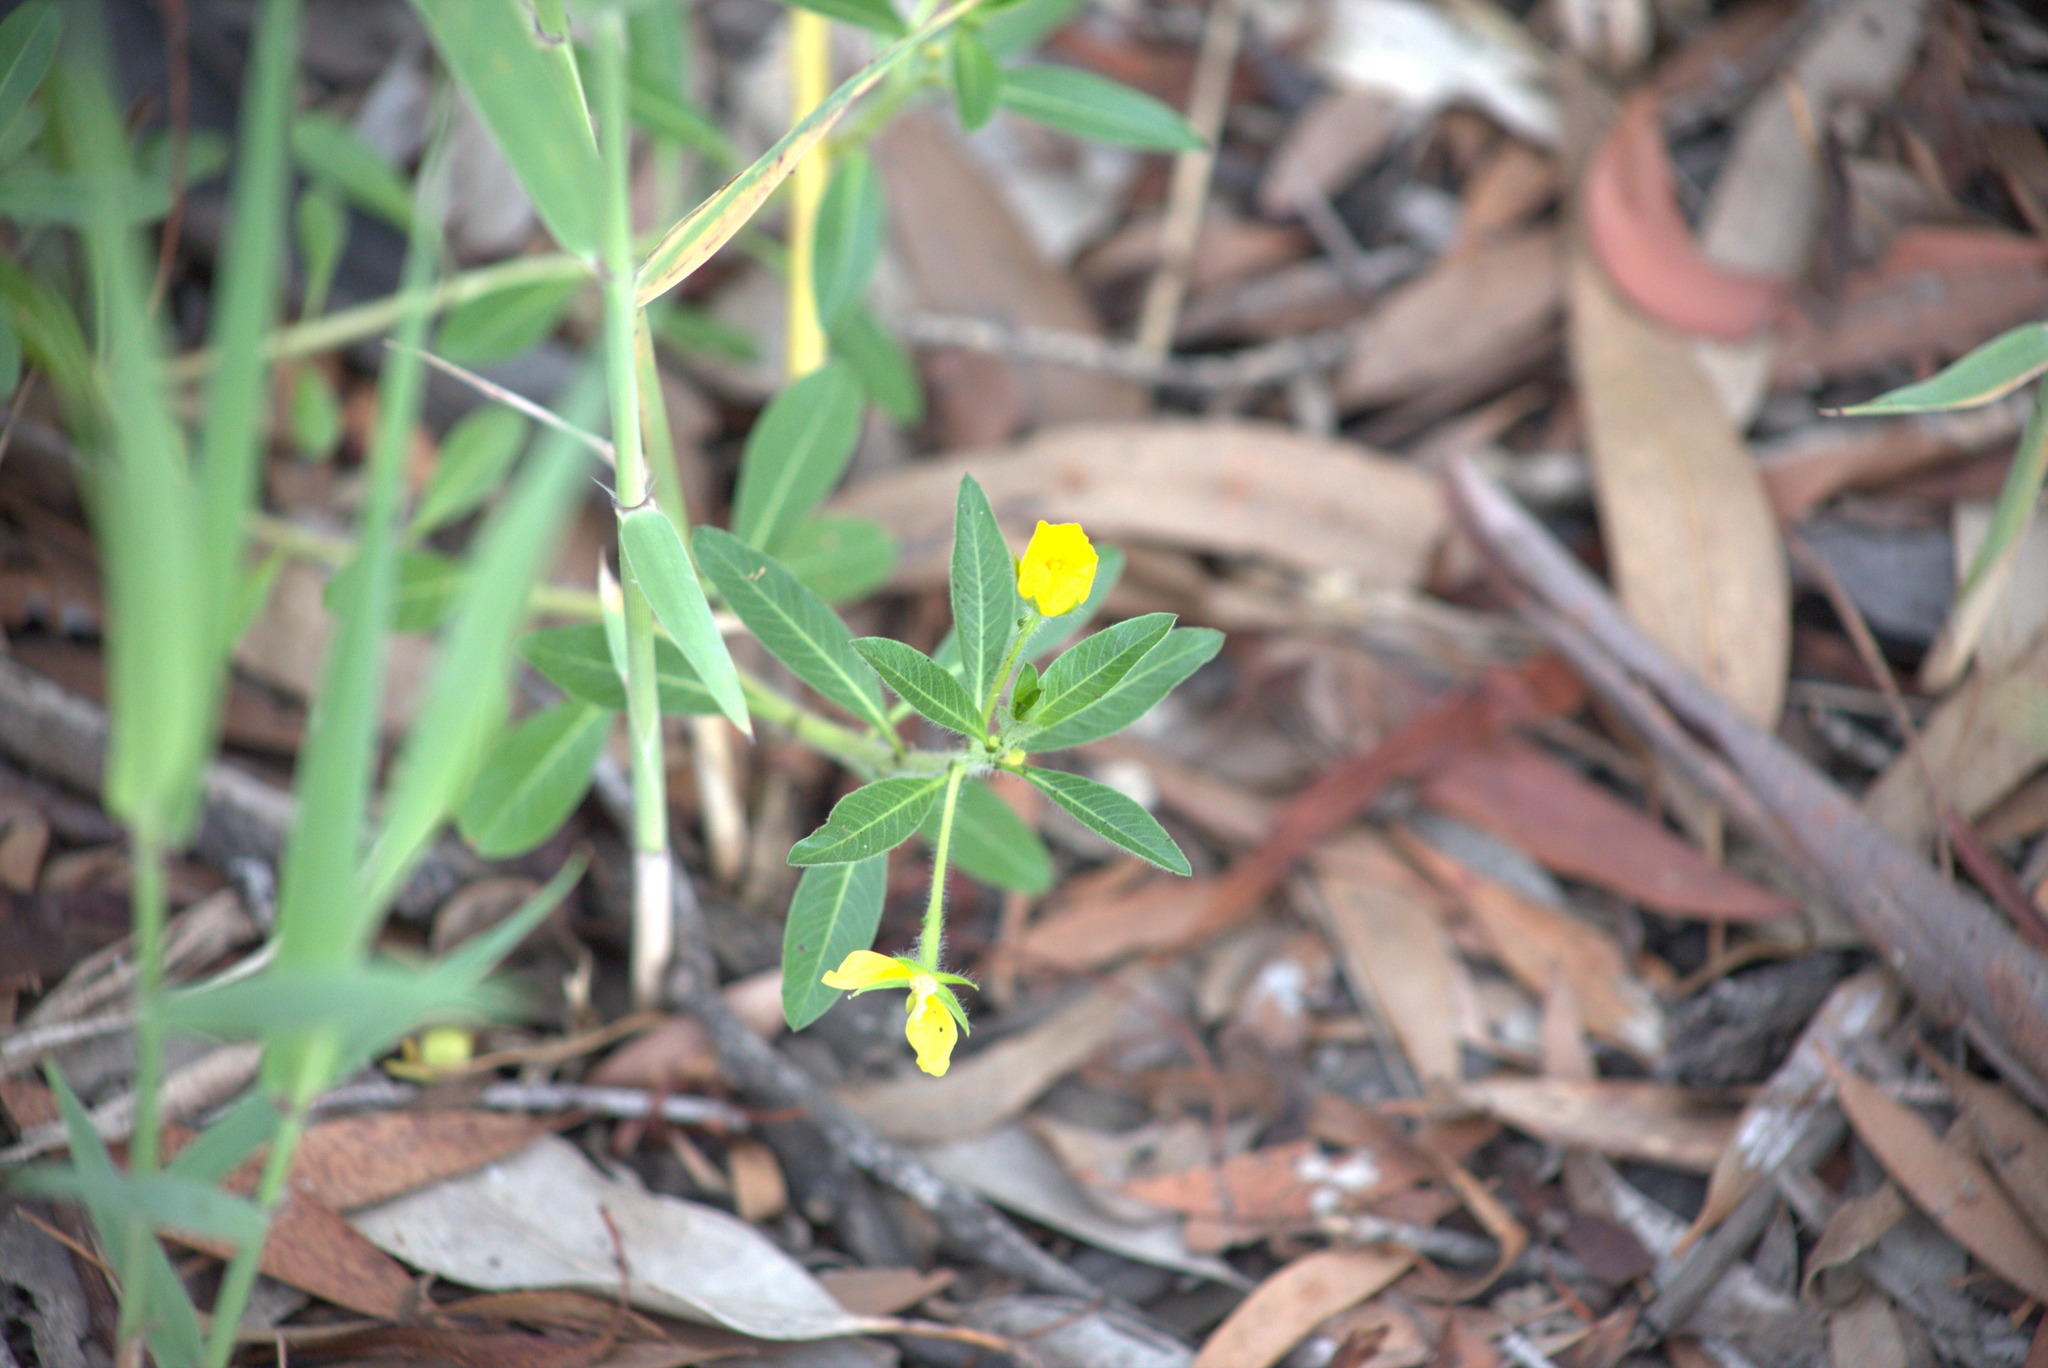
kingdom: Plantae
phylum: Tracheophyta
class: Magnoliopsida
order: Myrtales
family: Onagraceae
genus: Ludwigia
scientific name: Ludwigia peploides
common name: Floating primrose-willow
